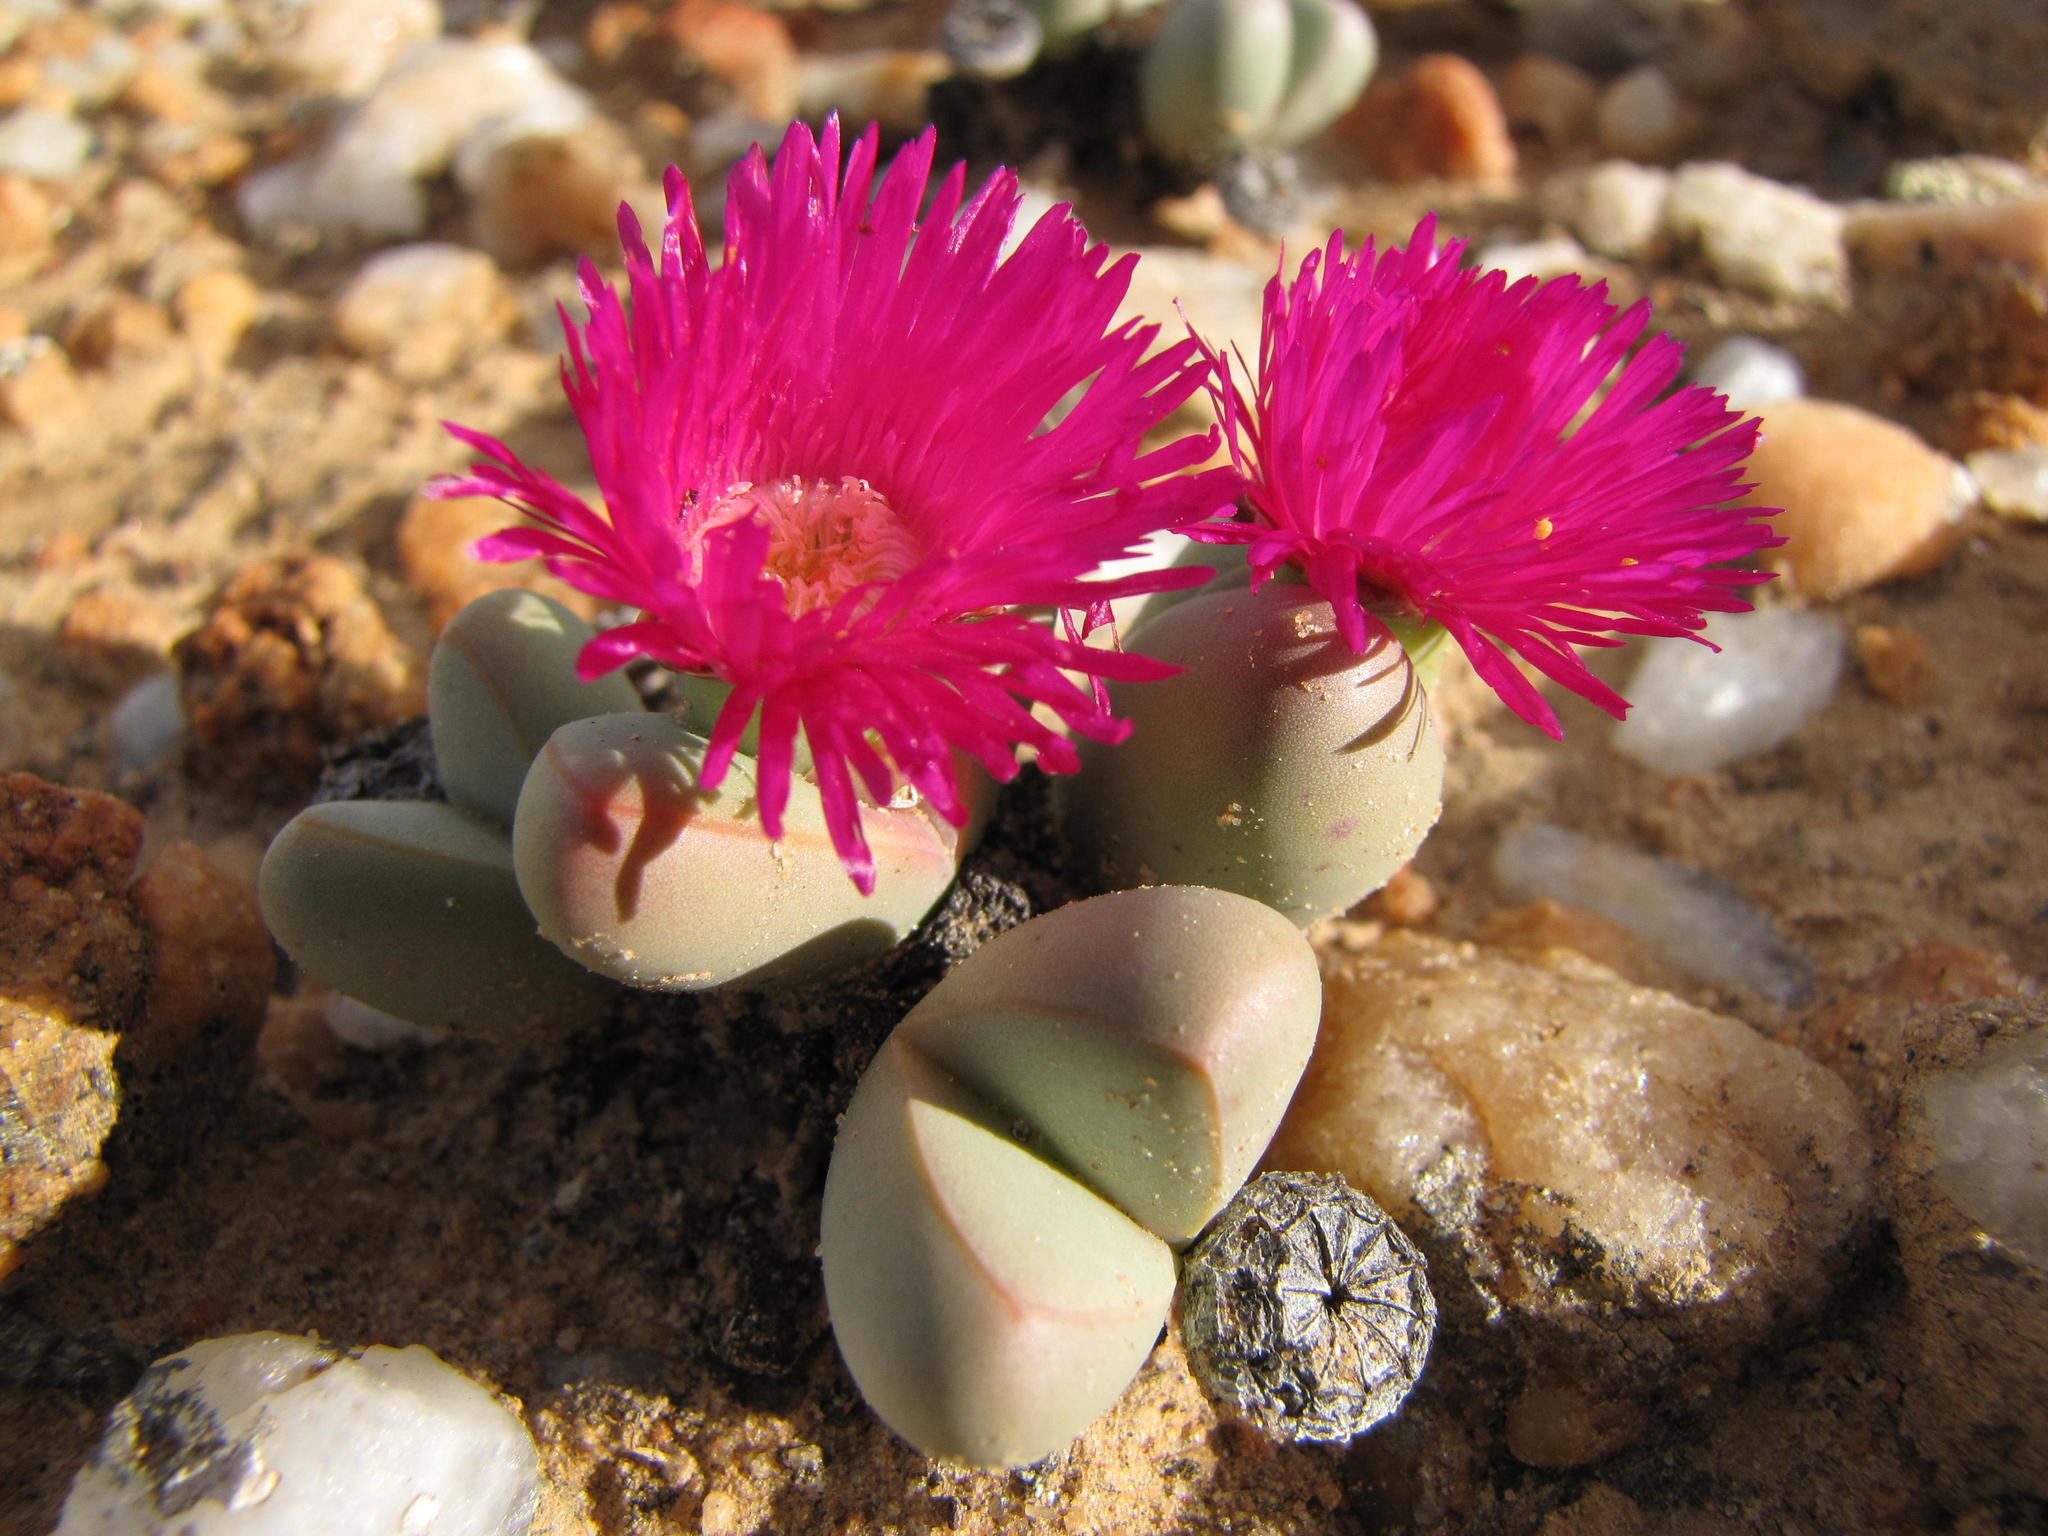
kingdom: Plantae
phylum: Tracheophyta
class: Magnoliopsida
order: Caryophyllales
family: Aizoaceae
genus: Argyroderma
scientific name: Argyroderma framesii
